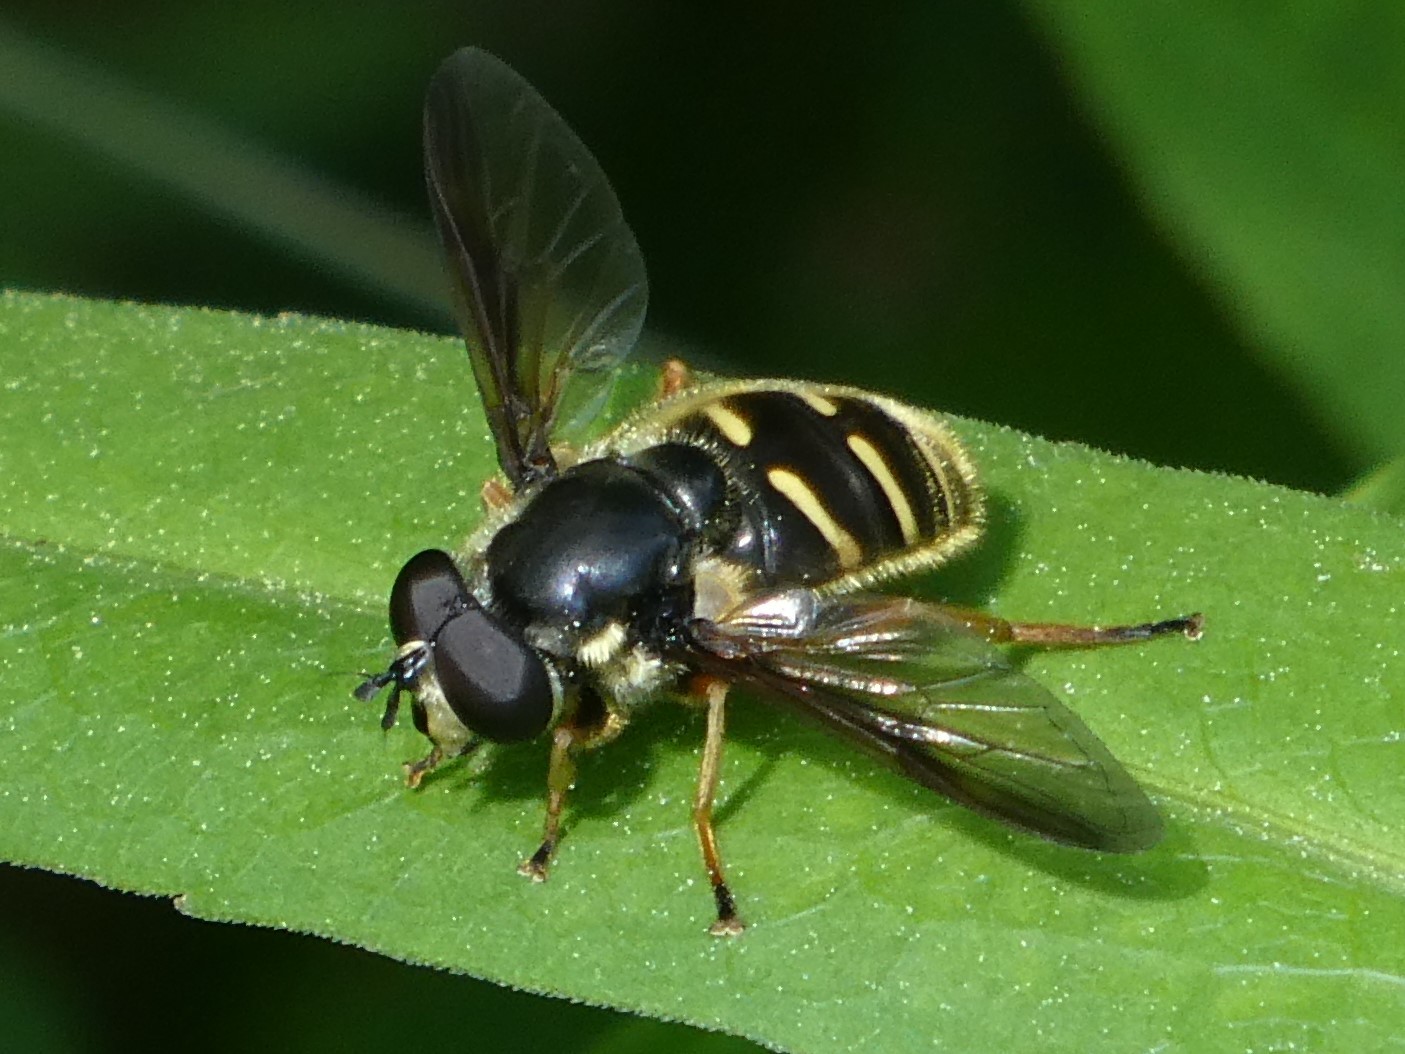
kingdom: Animalia
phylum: Arthropoda
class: Insecta
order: Diptera
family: Syrphidae
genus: Sericomyia
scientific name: Sericomyia chrysotoxoides
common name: Oblique-banded pond fly
